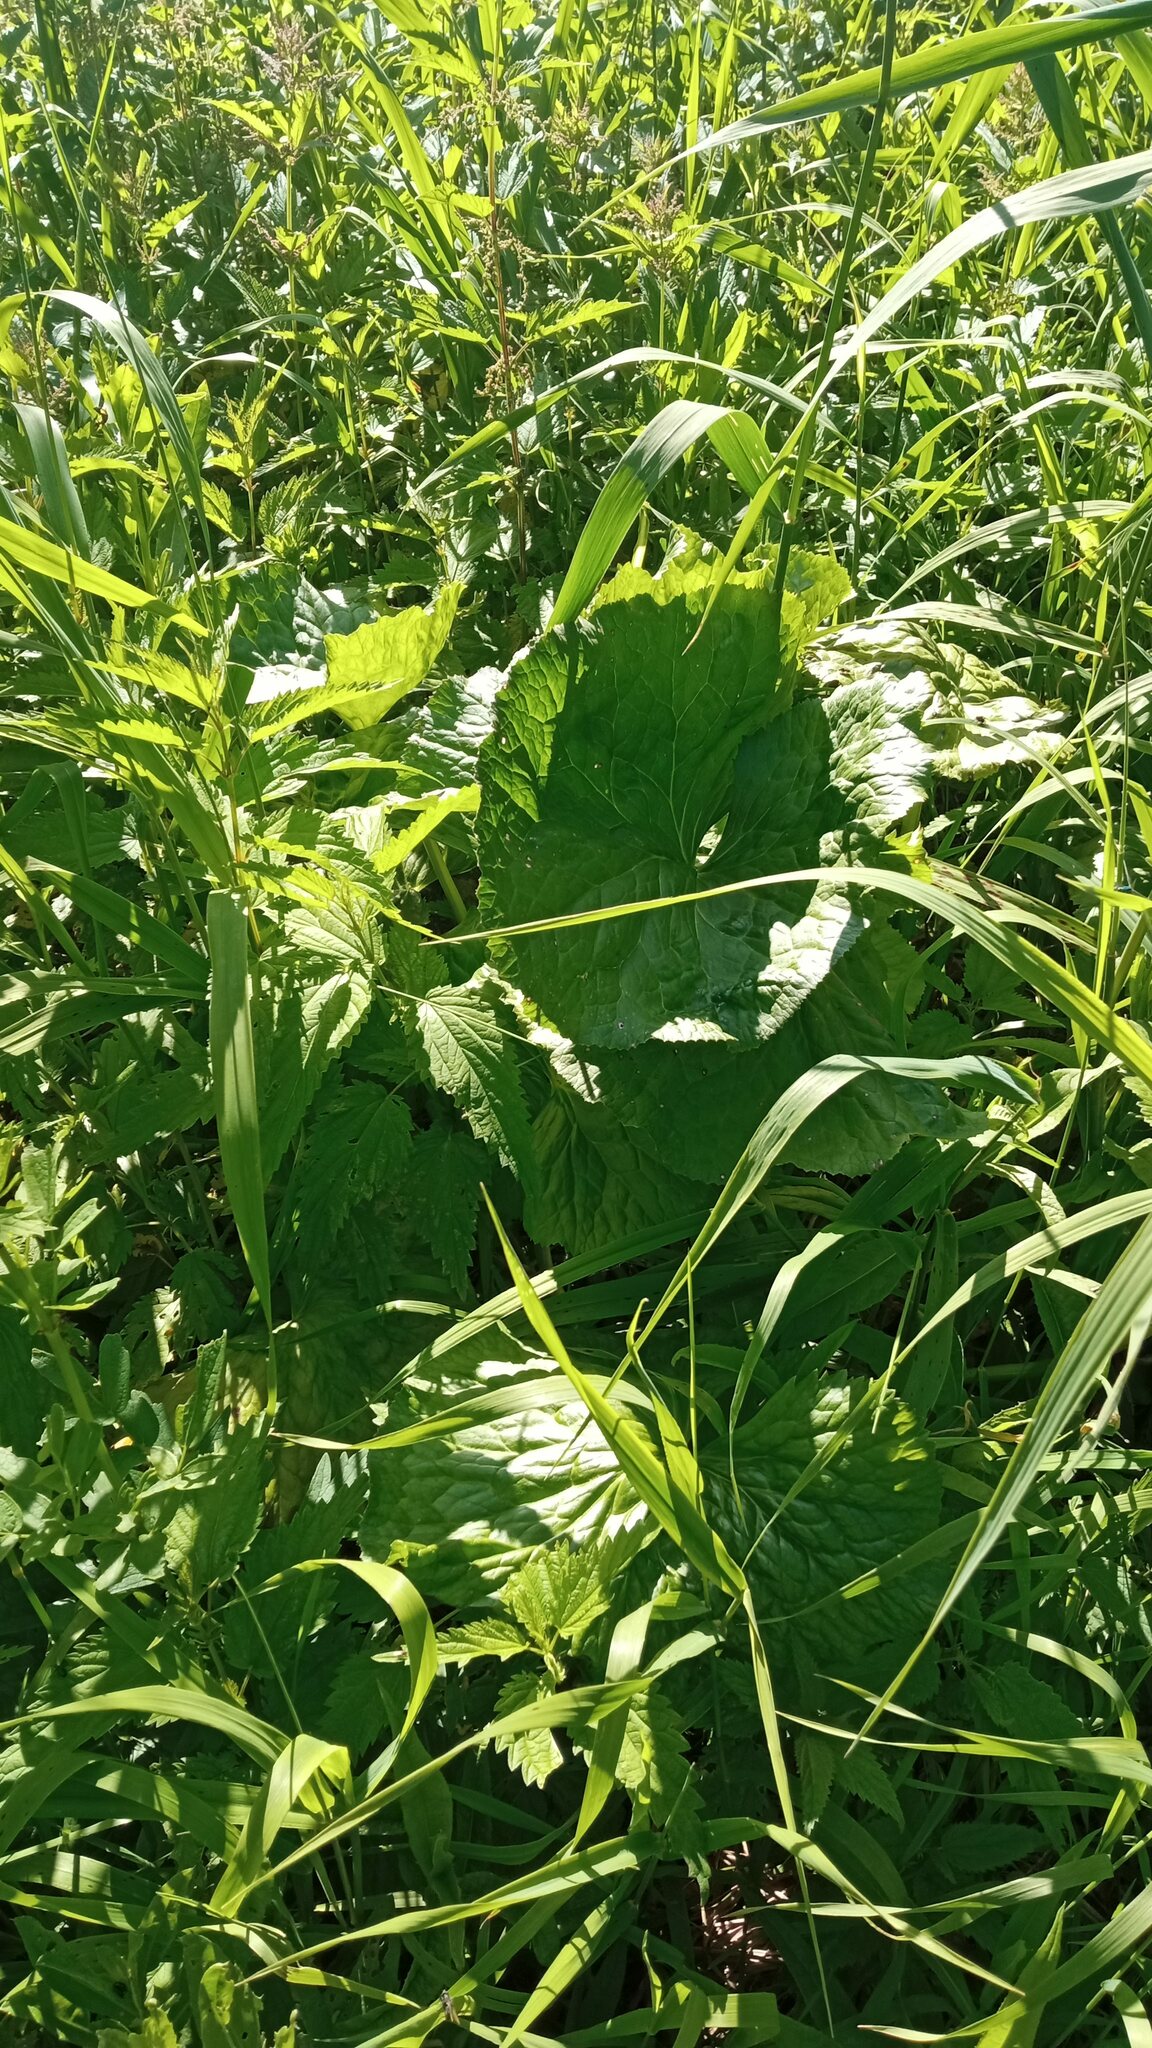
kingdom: Plantae
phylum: Tracheophyta
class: Magnoliopsida
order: Ranunculales
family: Ranunculaceae
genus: Caltha
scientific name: Caltha palustris
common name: Marsh marigold
